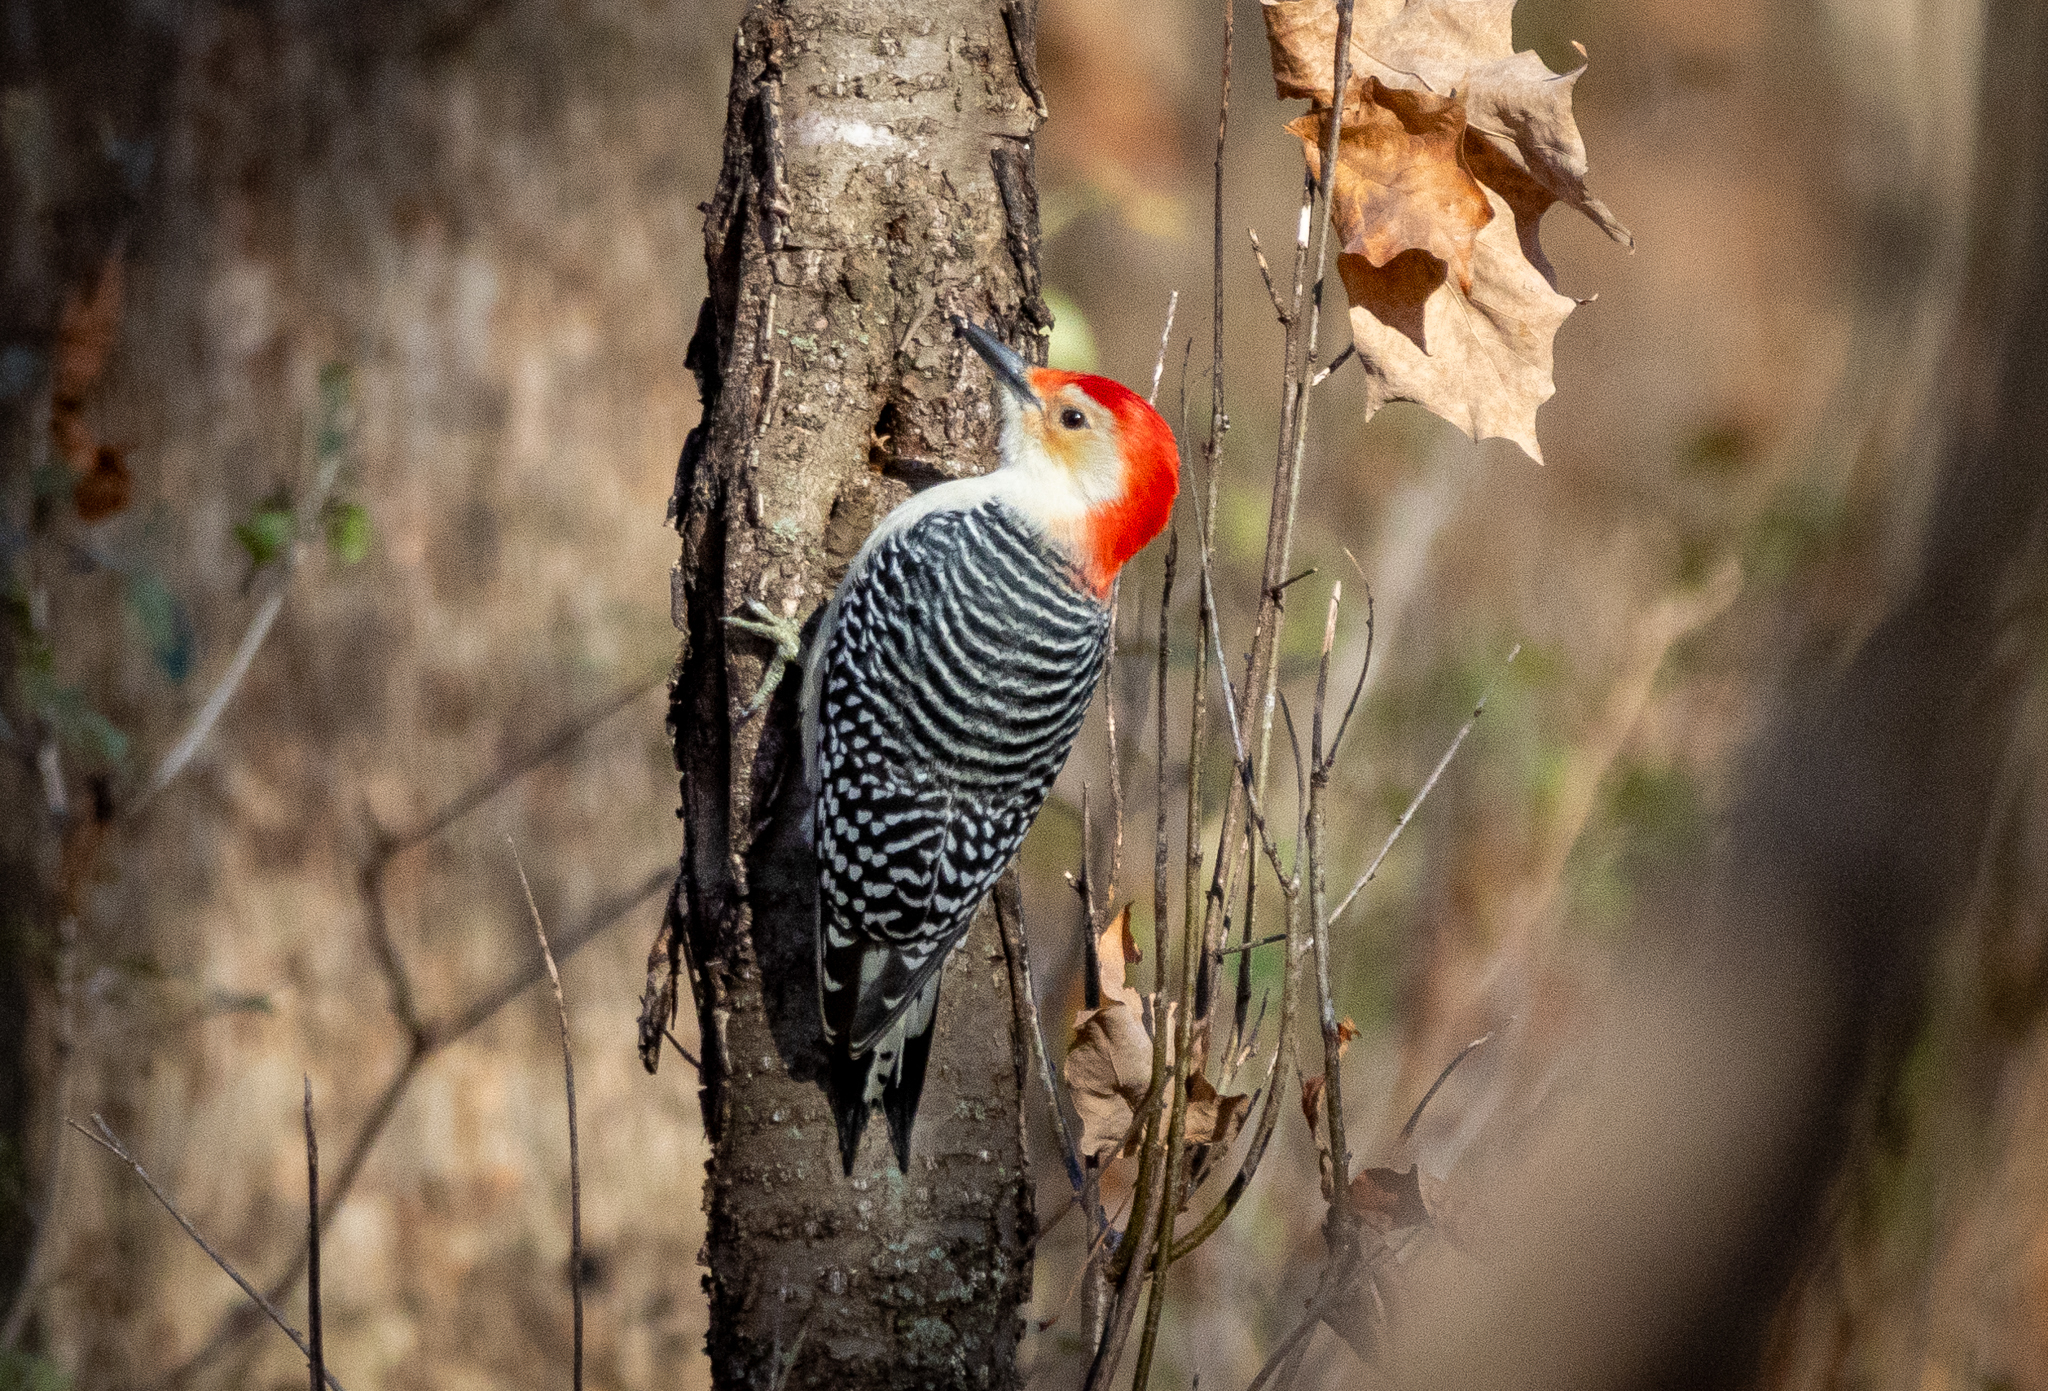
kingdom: Animalia
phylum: Chordata
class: Aves
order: Piciformes
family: Picidae
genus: Melanerpes
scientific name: Melanerpes carolinus
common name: Red-bellied woodpecker
